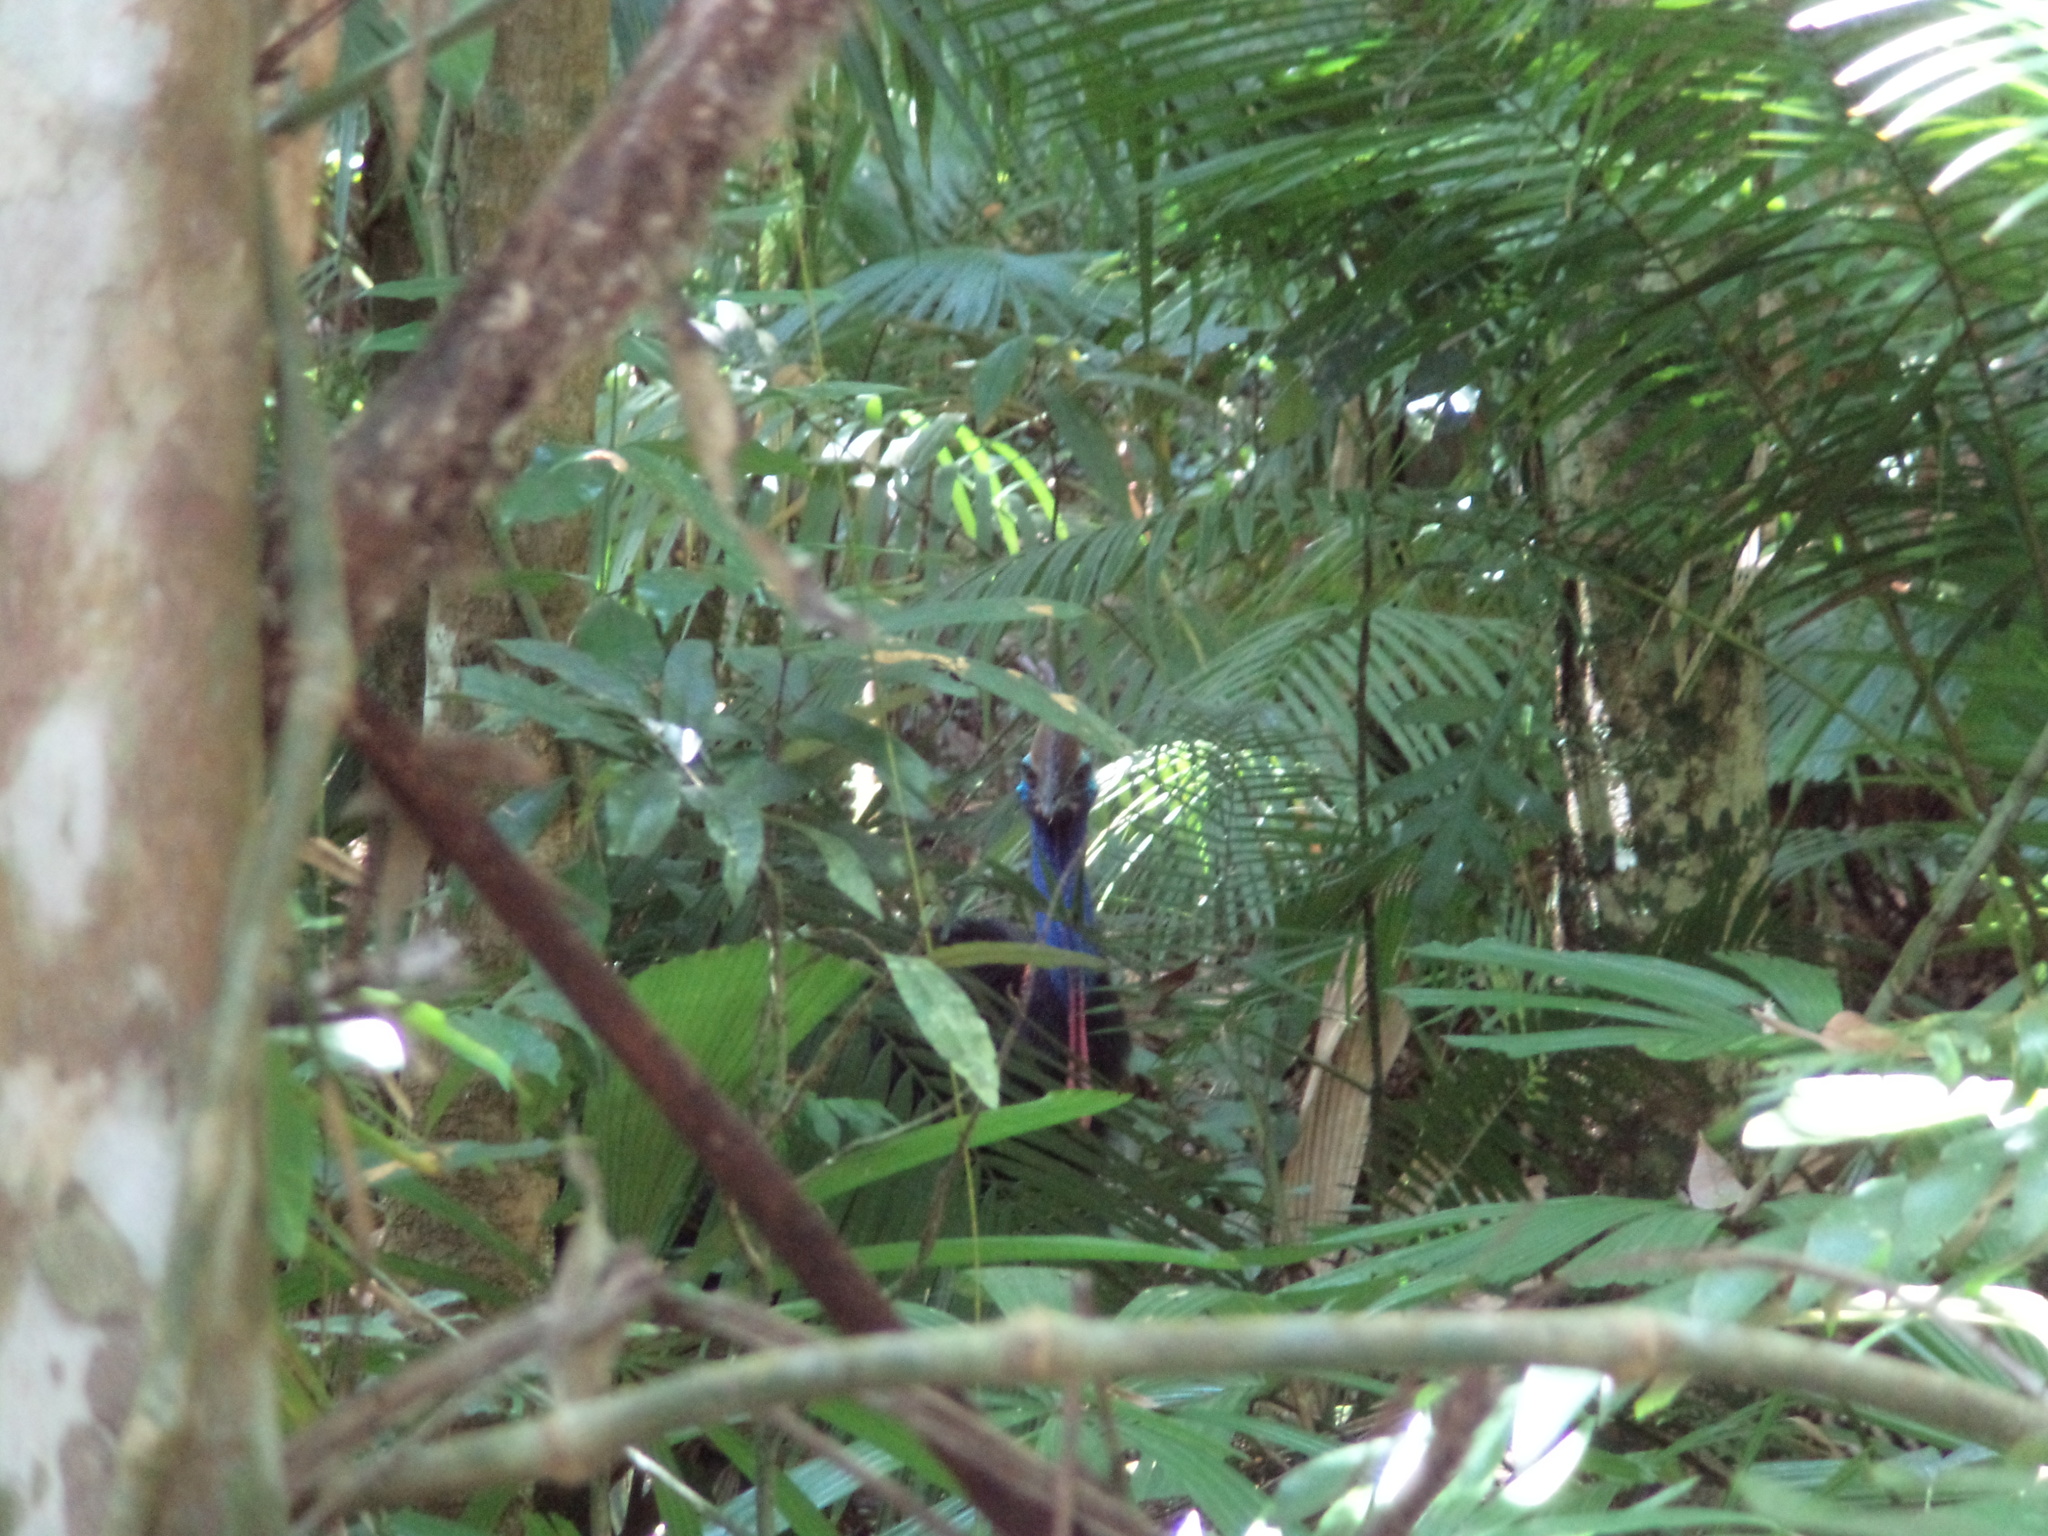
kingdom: Animalia
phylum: Chordata
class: Aves
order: Casuariiformes
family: Casuariidae
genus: Casuarius
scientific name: Casuarius casuarius
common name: Southern cassowary
